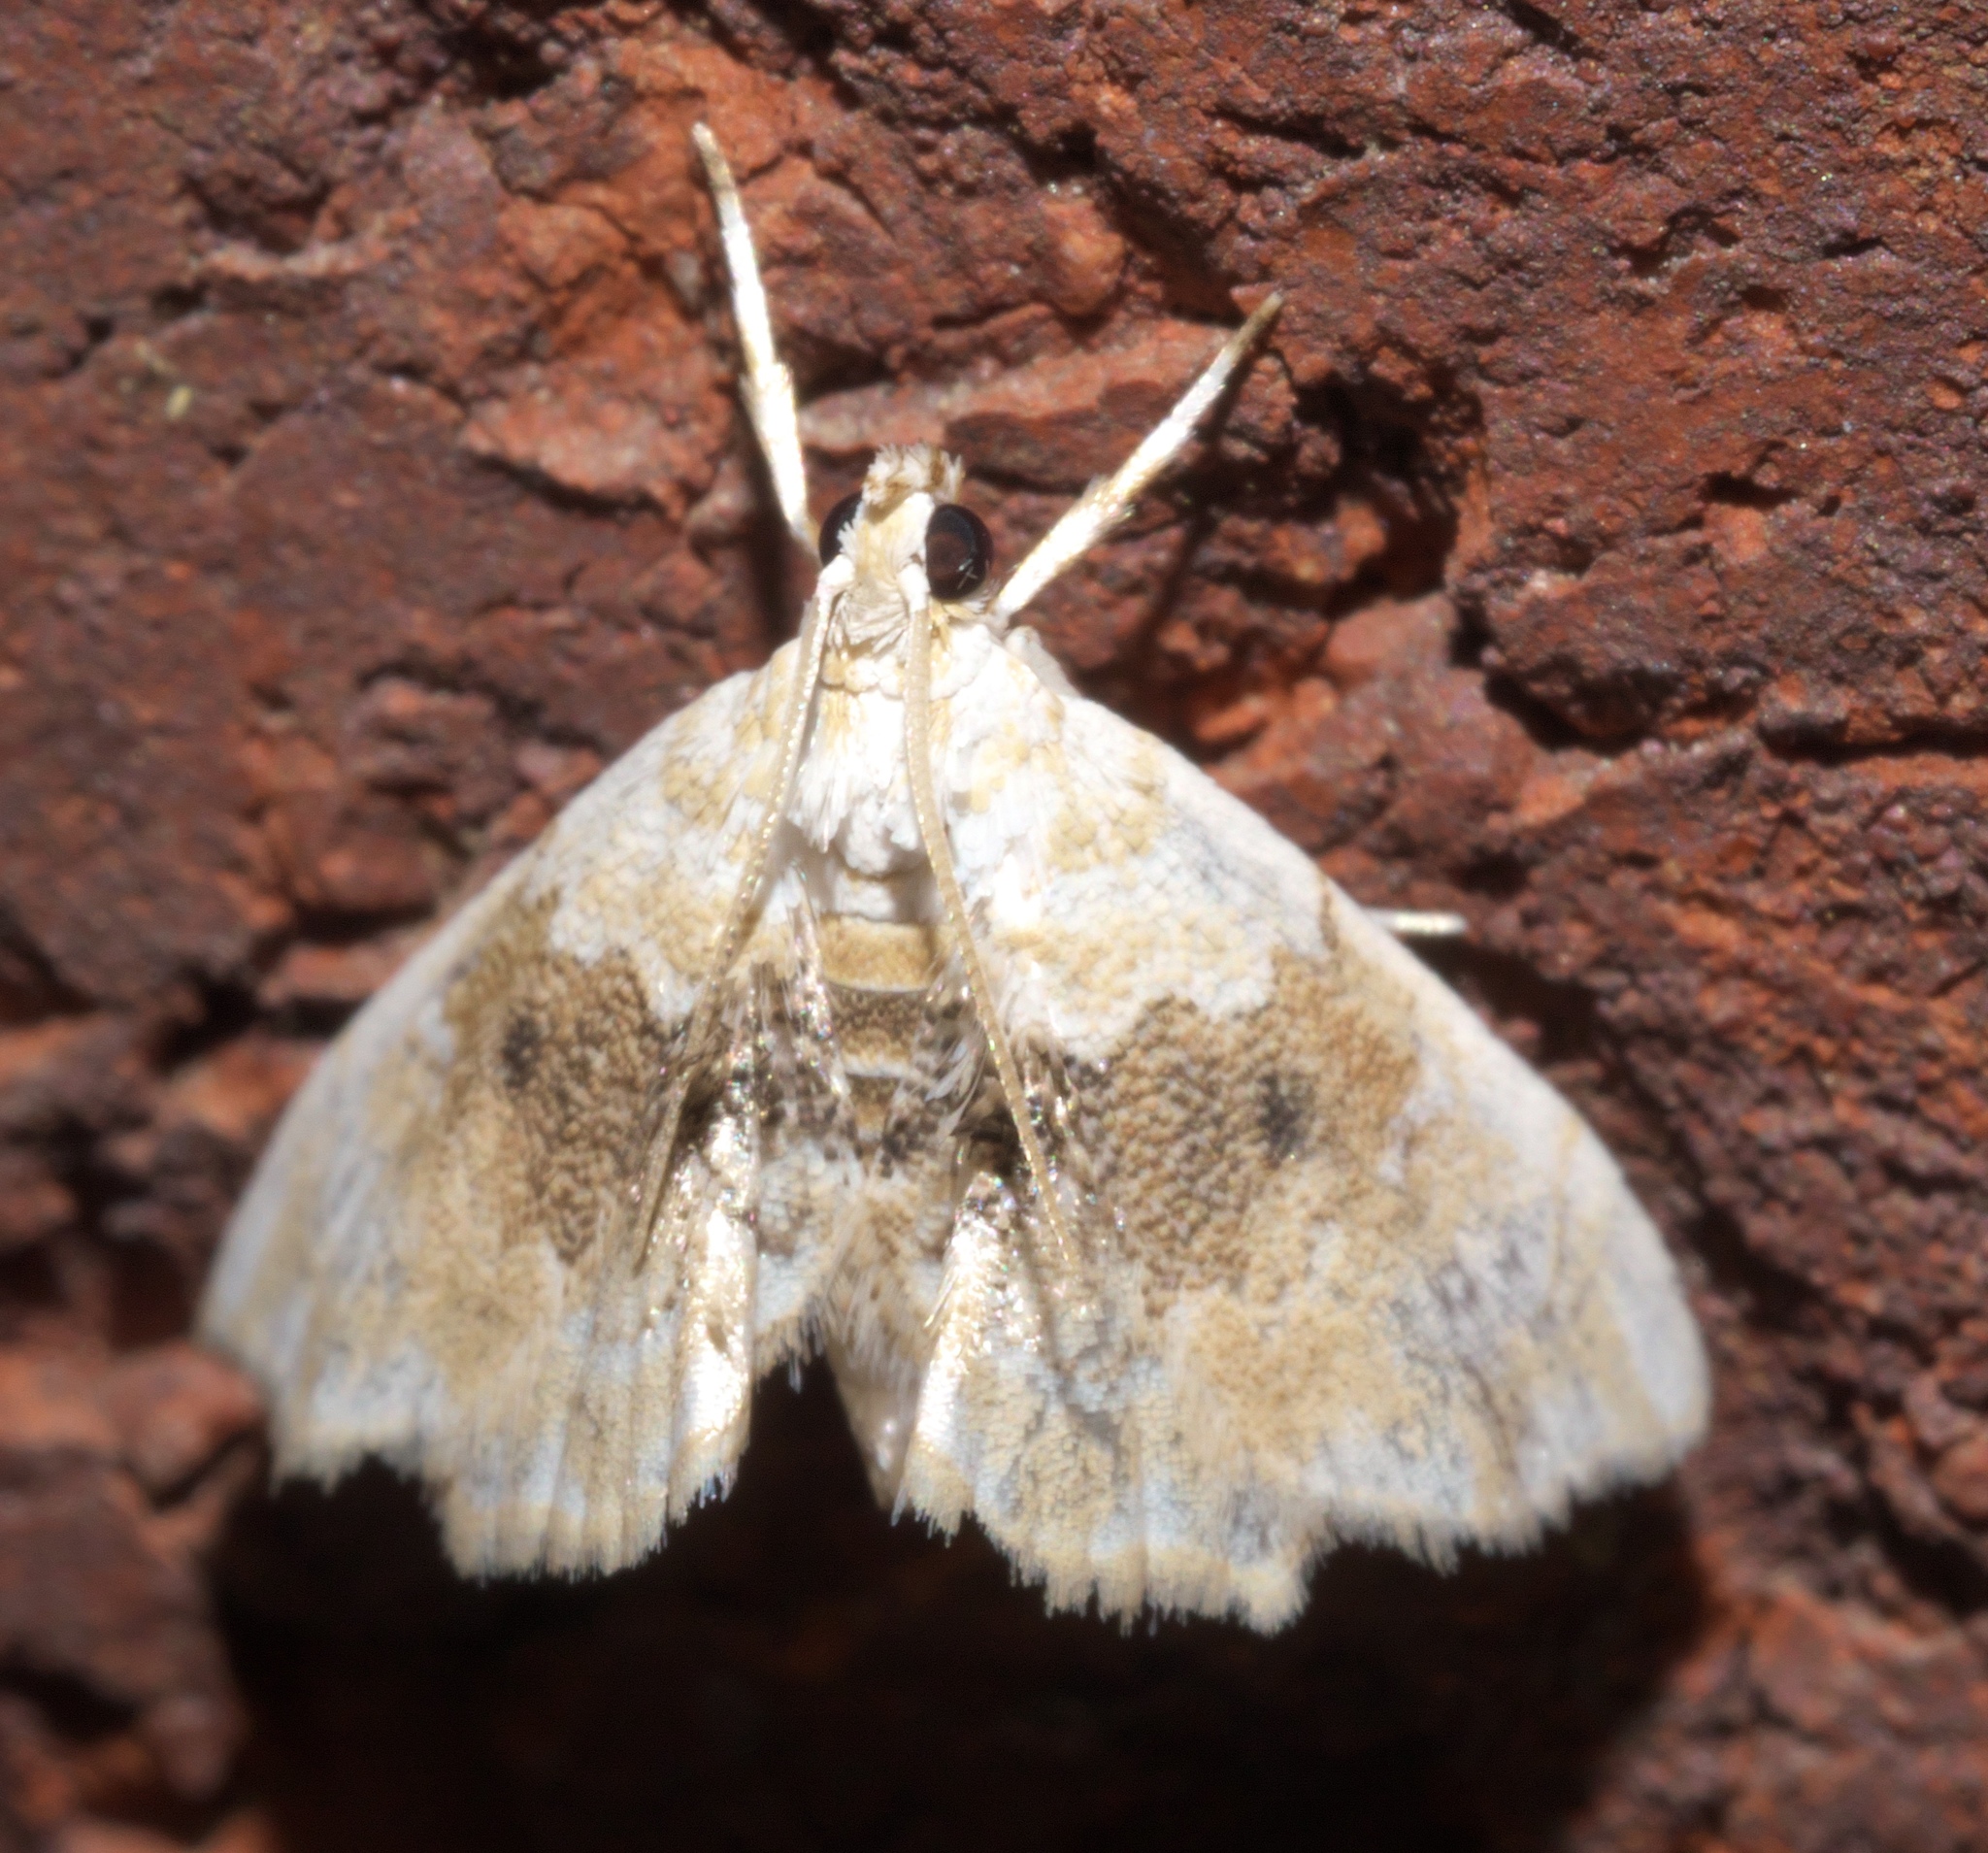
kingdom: Animalia
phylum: Arthropoda
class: Insecta
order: Lepidoptera
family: Crambidae
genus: Lipocosma
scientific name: Lipocosma sicalis
